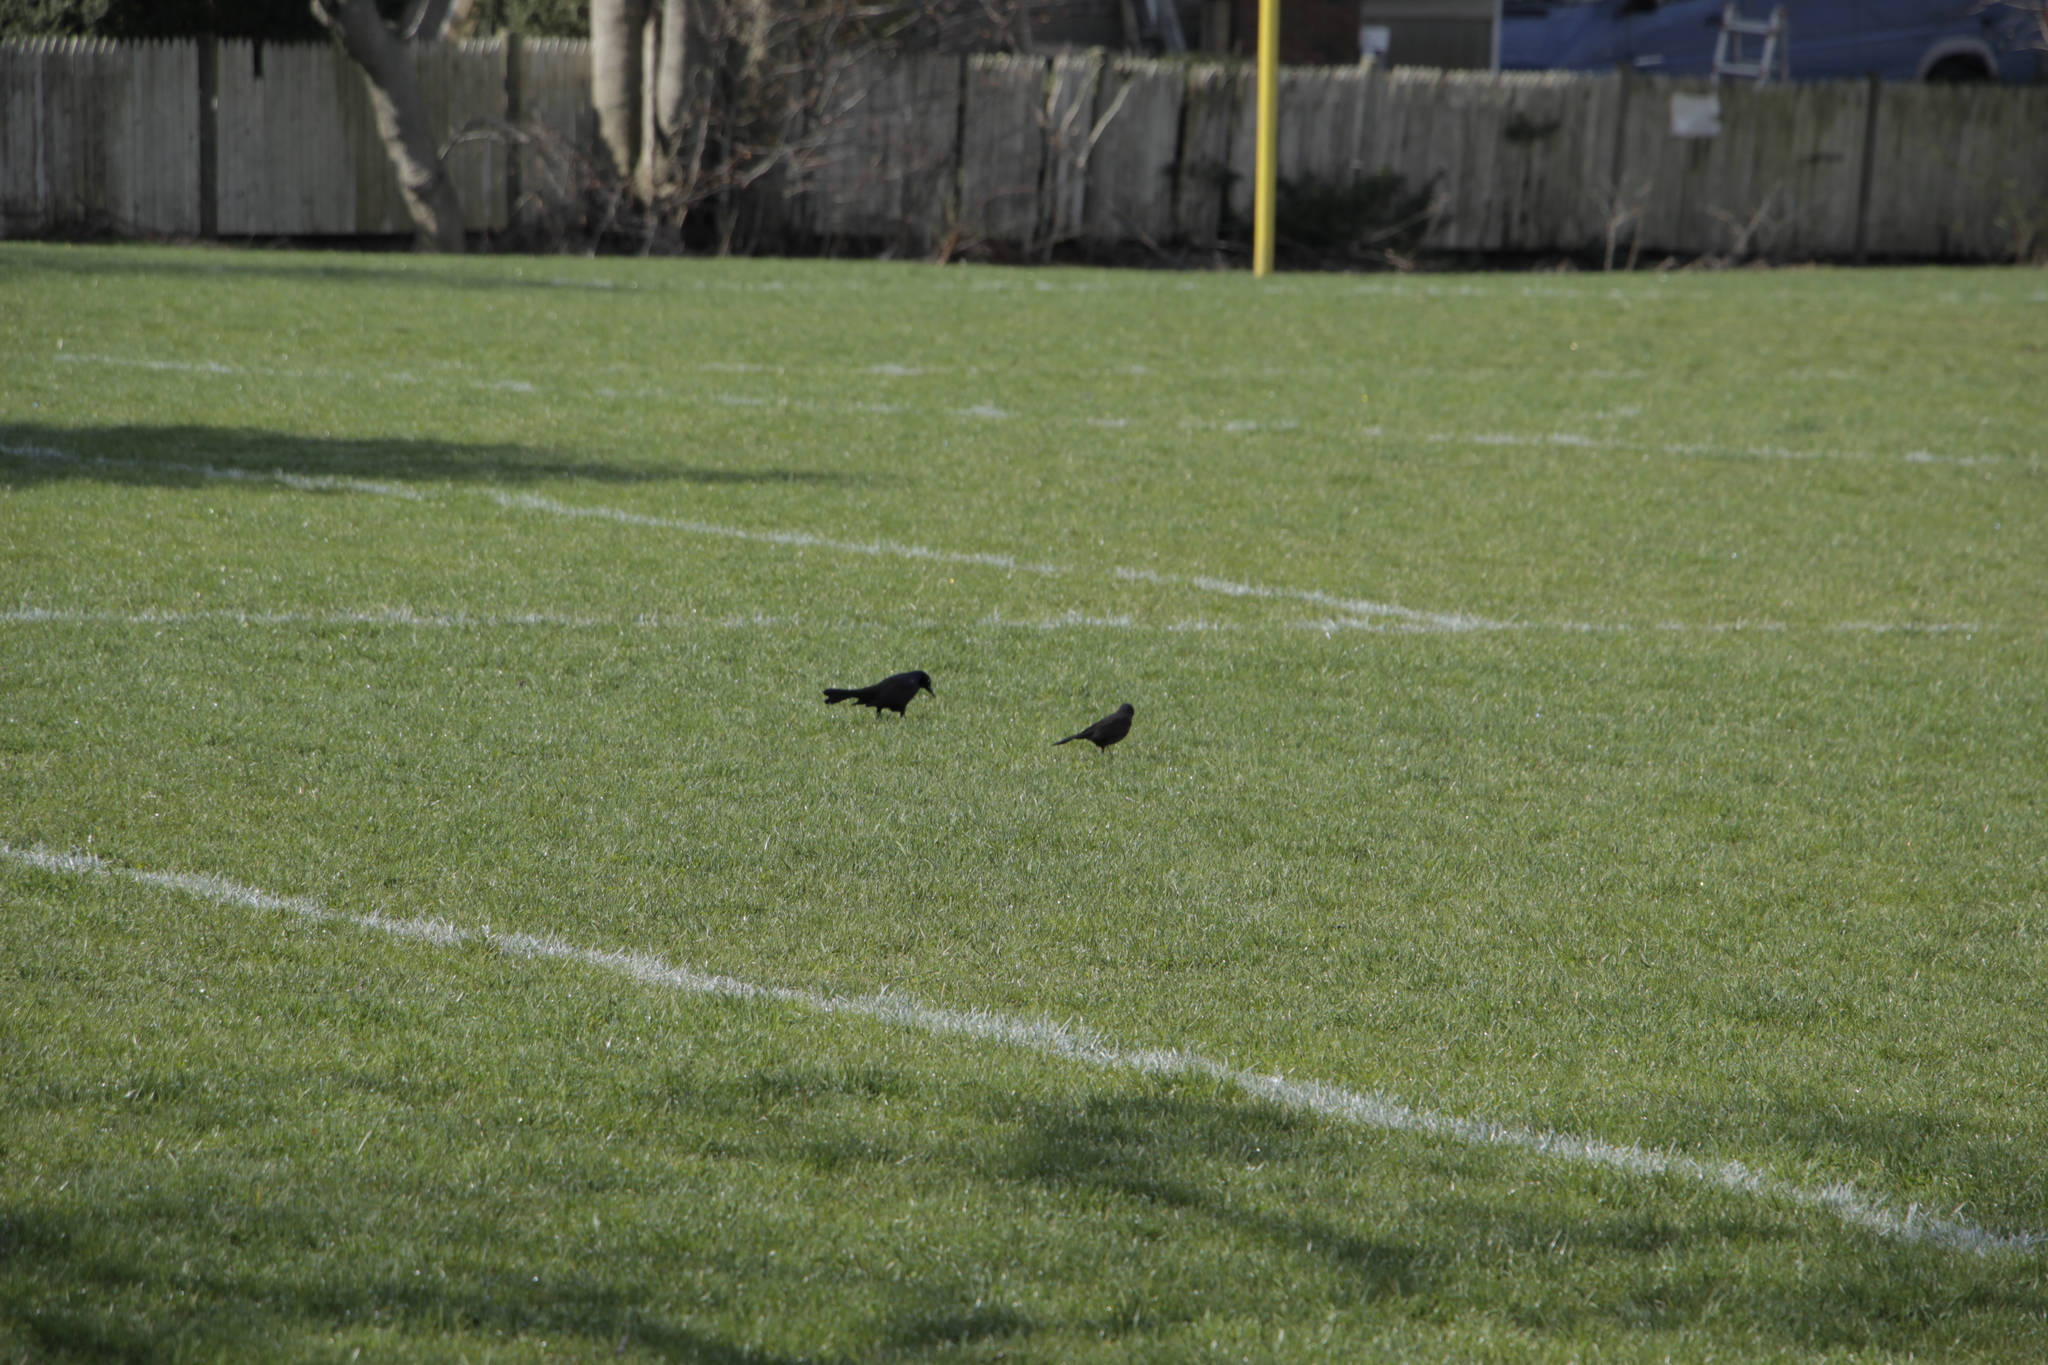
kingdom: Animalia
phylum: Chordata
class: Aves
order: Passeriformes
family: Icteridae
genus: Quiscalus
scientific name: Quiscalus quiscula
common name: Common grackle
